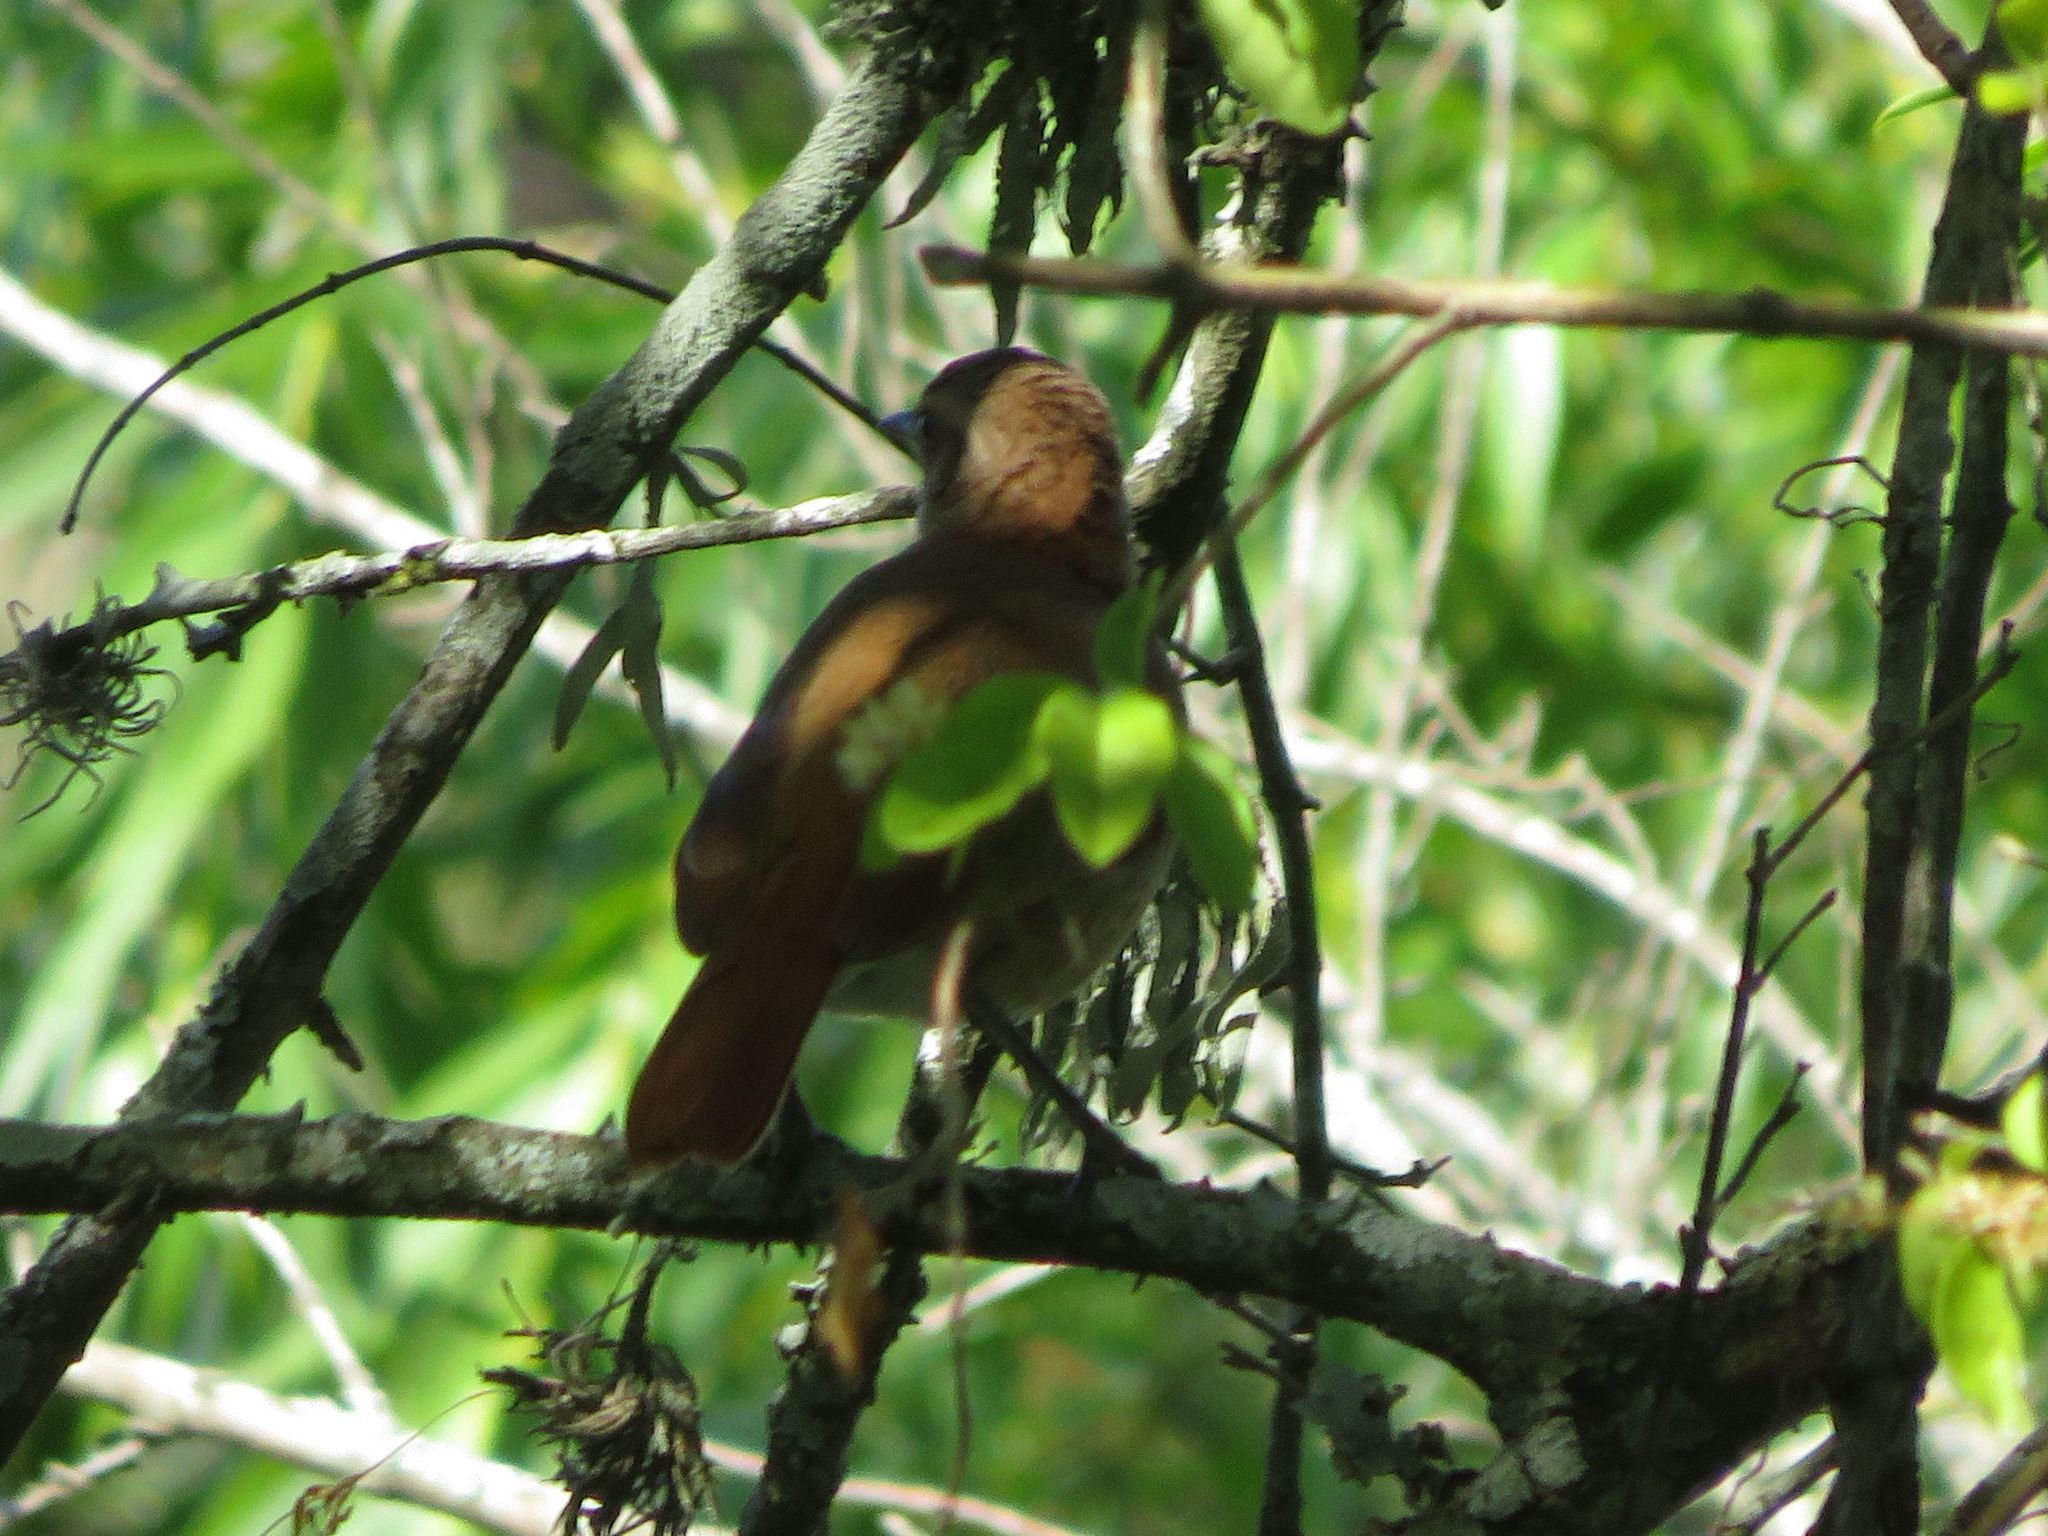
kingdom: Animalia
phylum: Chordata
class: Aves
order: Passeriformes
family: Furnariidae
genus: Furnarius
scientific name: Furnarius rufus
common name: Rufous hornero
